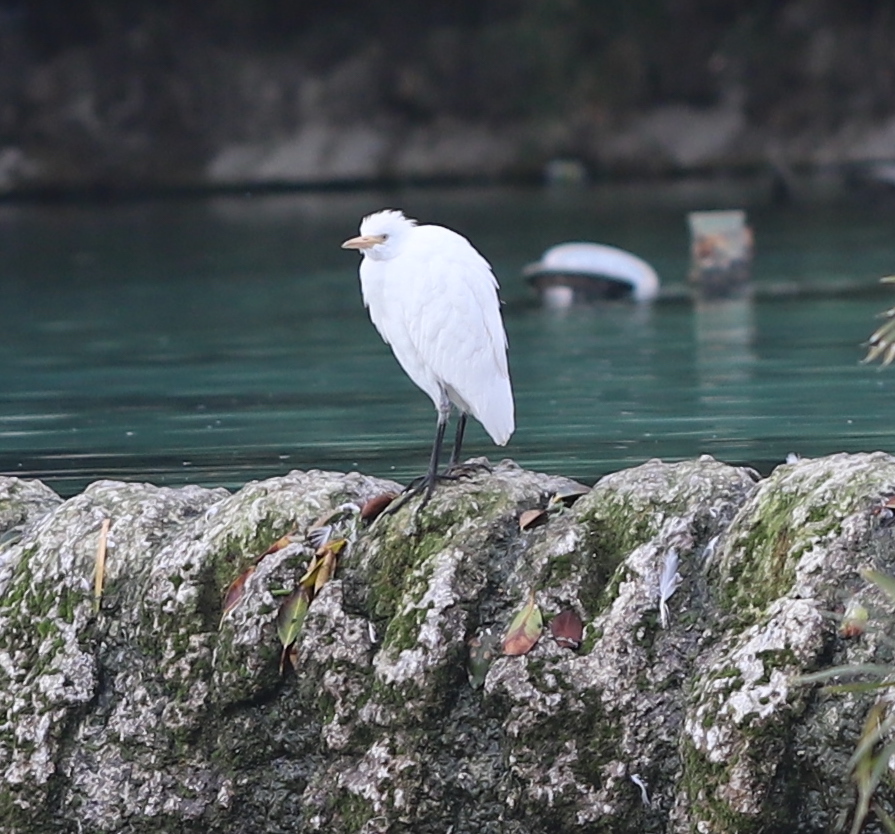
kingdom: Animalia
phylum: Chordata
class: Aves
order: Pelecaniformes
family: Ardeidae
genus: Bubulcus
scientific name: Bubulcus ibis
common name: Cattle egret
